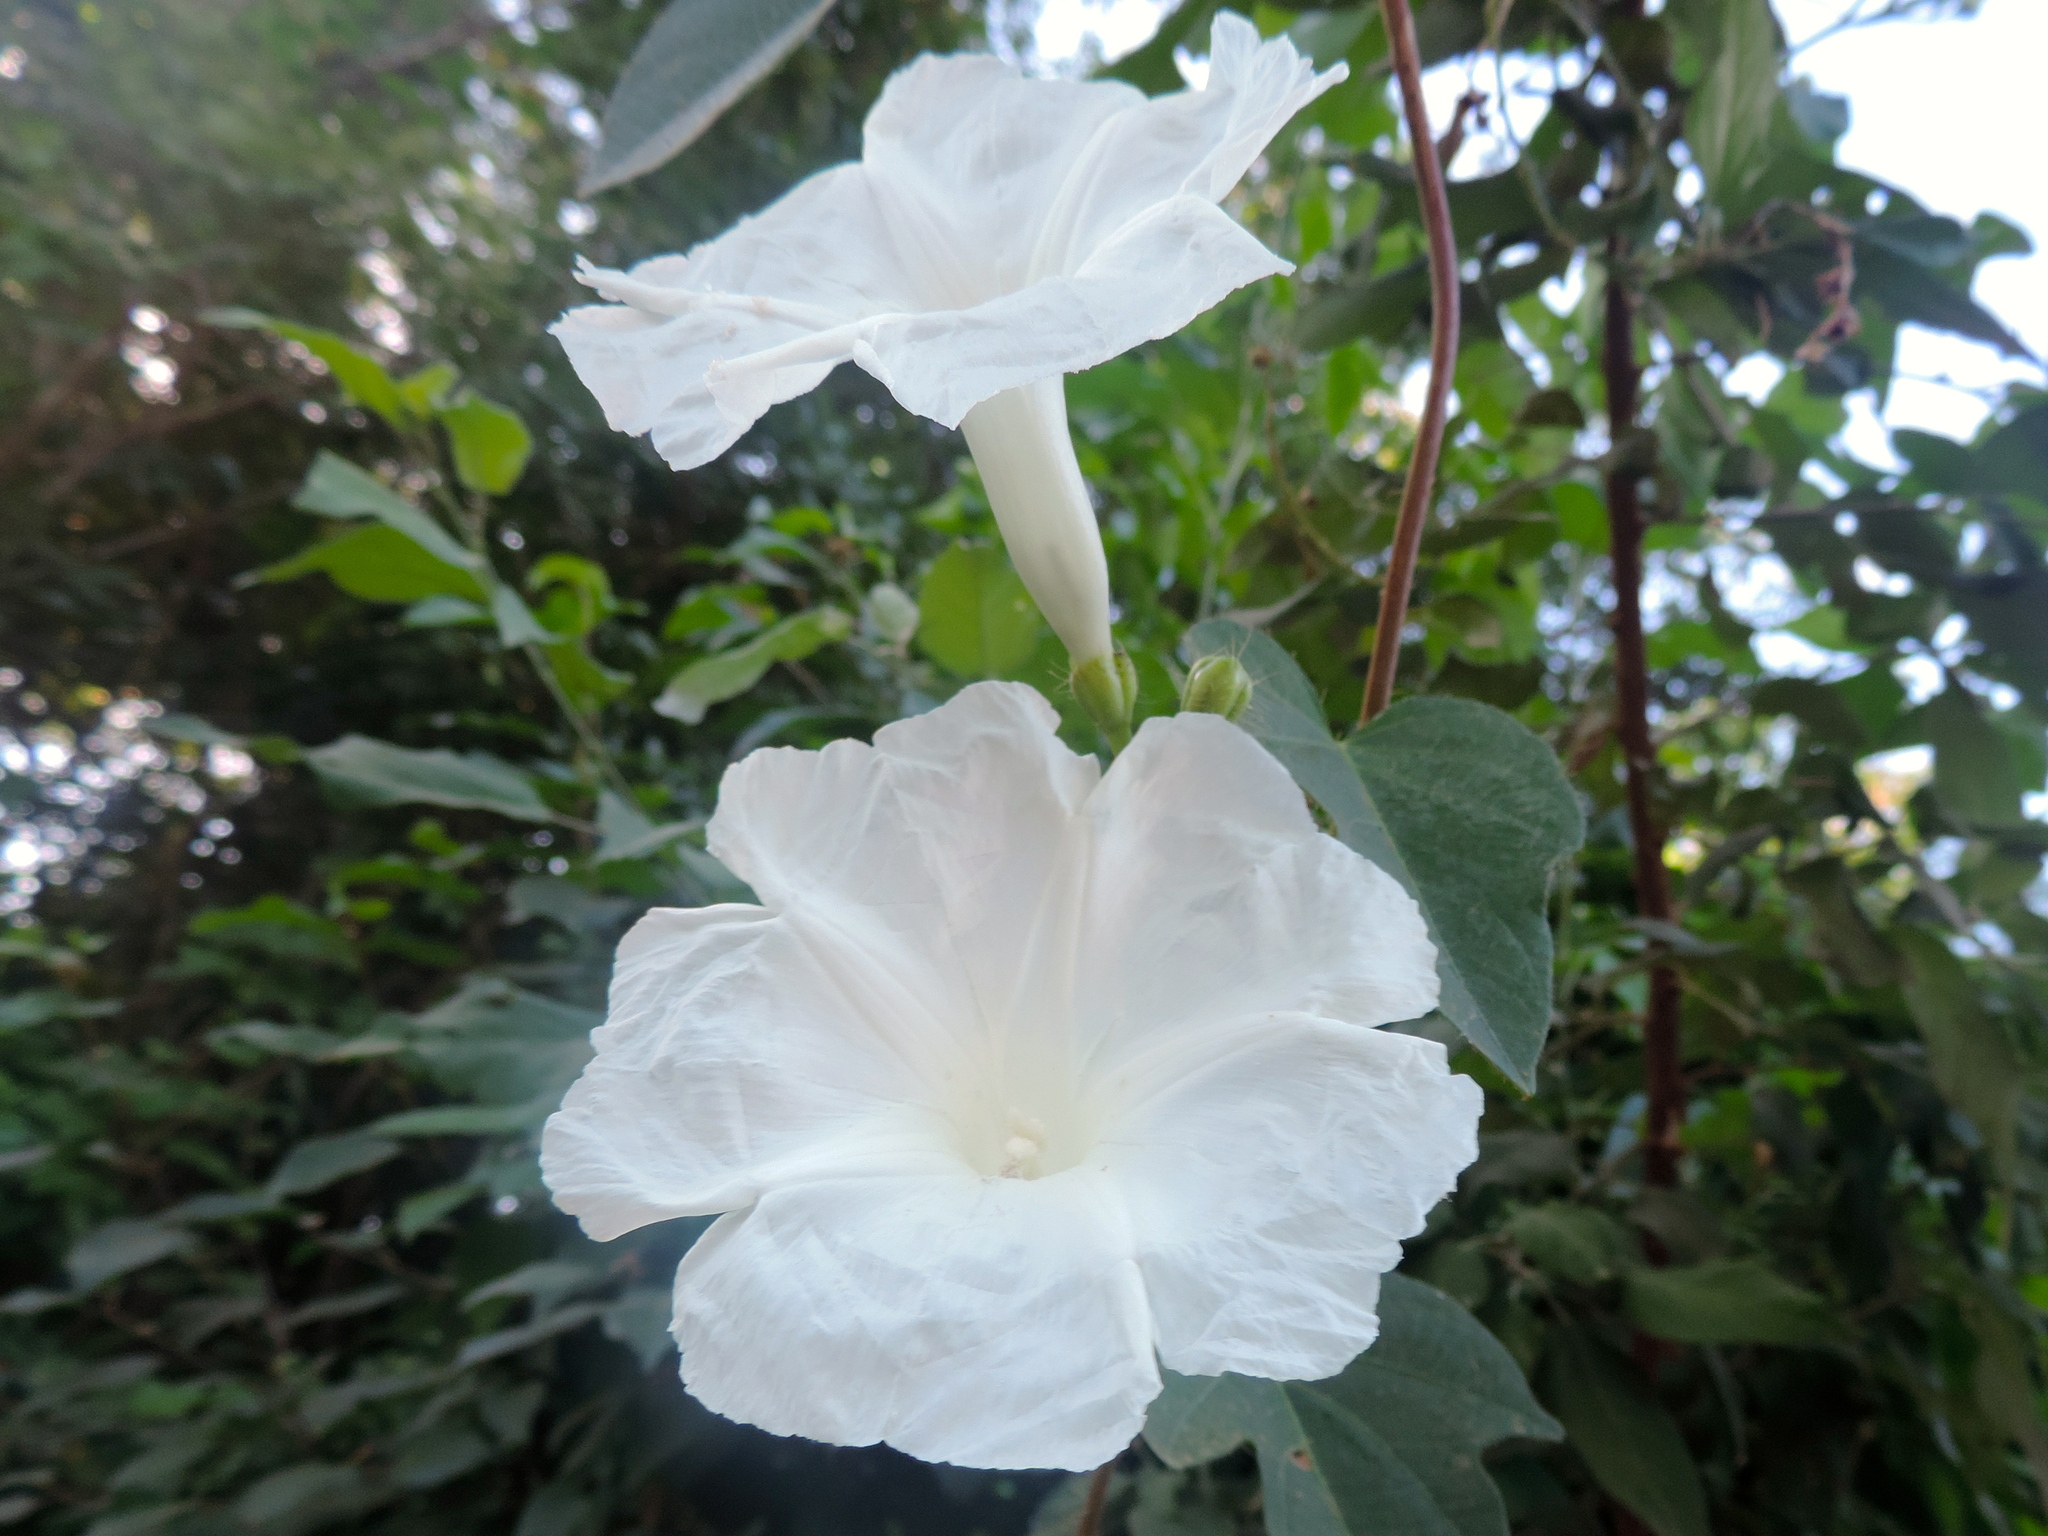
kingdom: Plantae
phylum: Tracheophyta
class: Magnoliopsida
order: Solanales
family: Convolvulaceae
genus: Ipomoea
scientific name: Ipomoea
